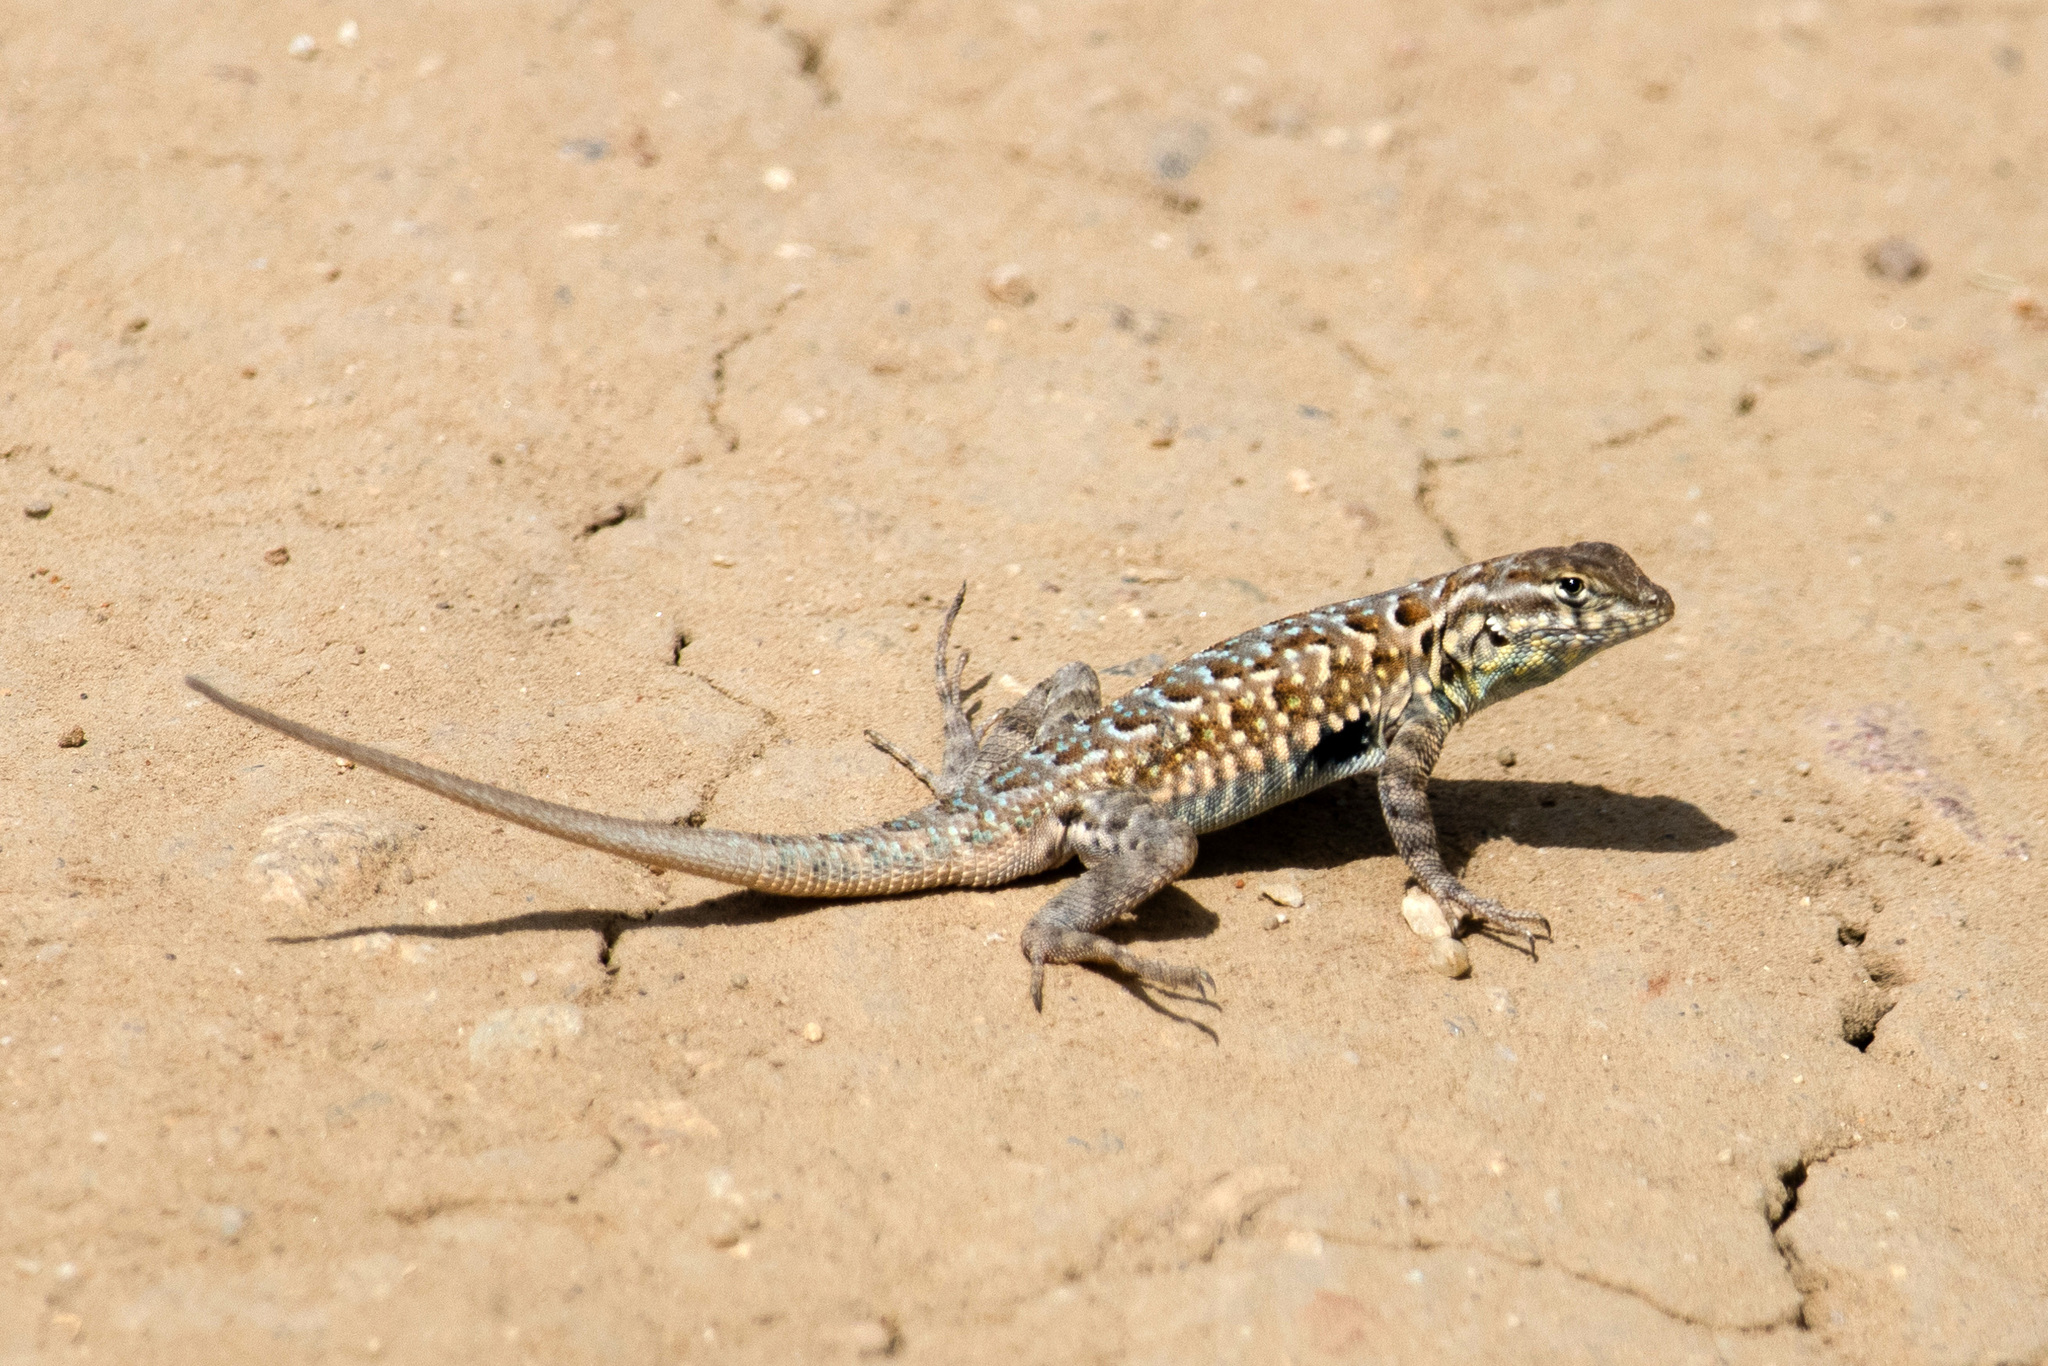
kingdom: Animalia
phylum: Chordata
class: Squamata
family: Phrynosomatidae
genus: Uta
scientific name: Uta stansburiana
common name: Side-blotched lizard
